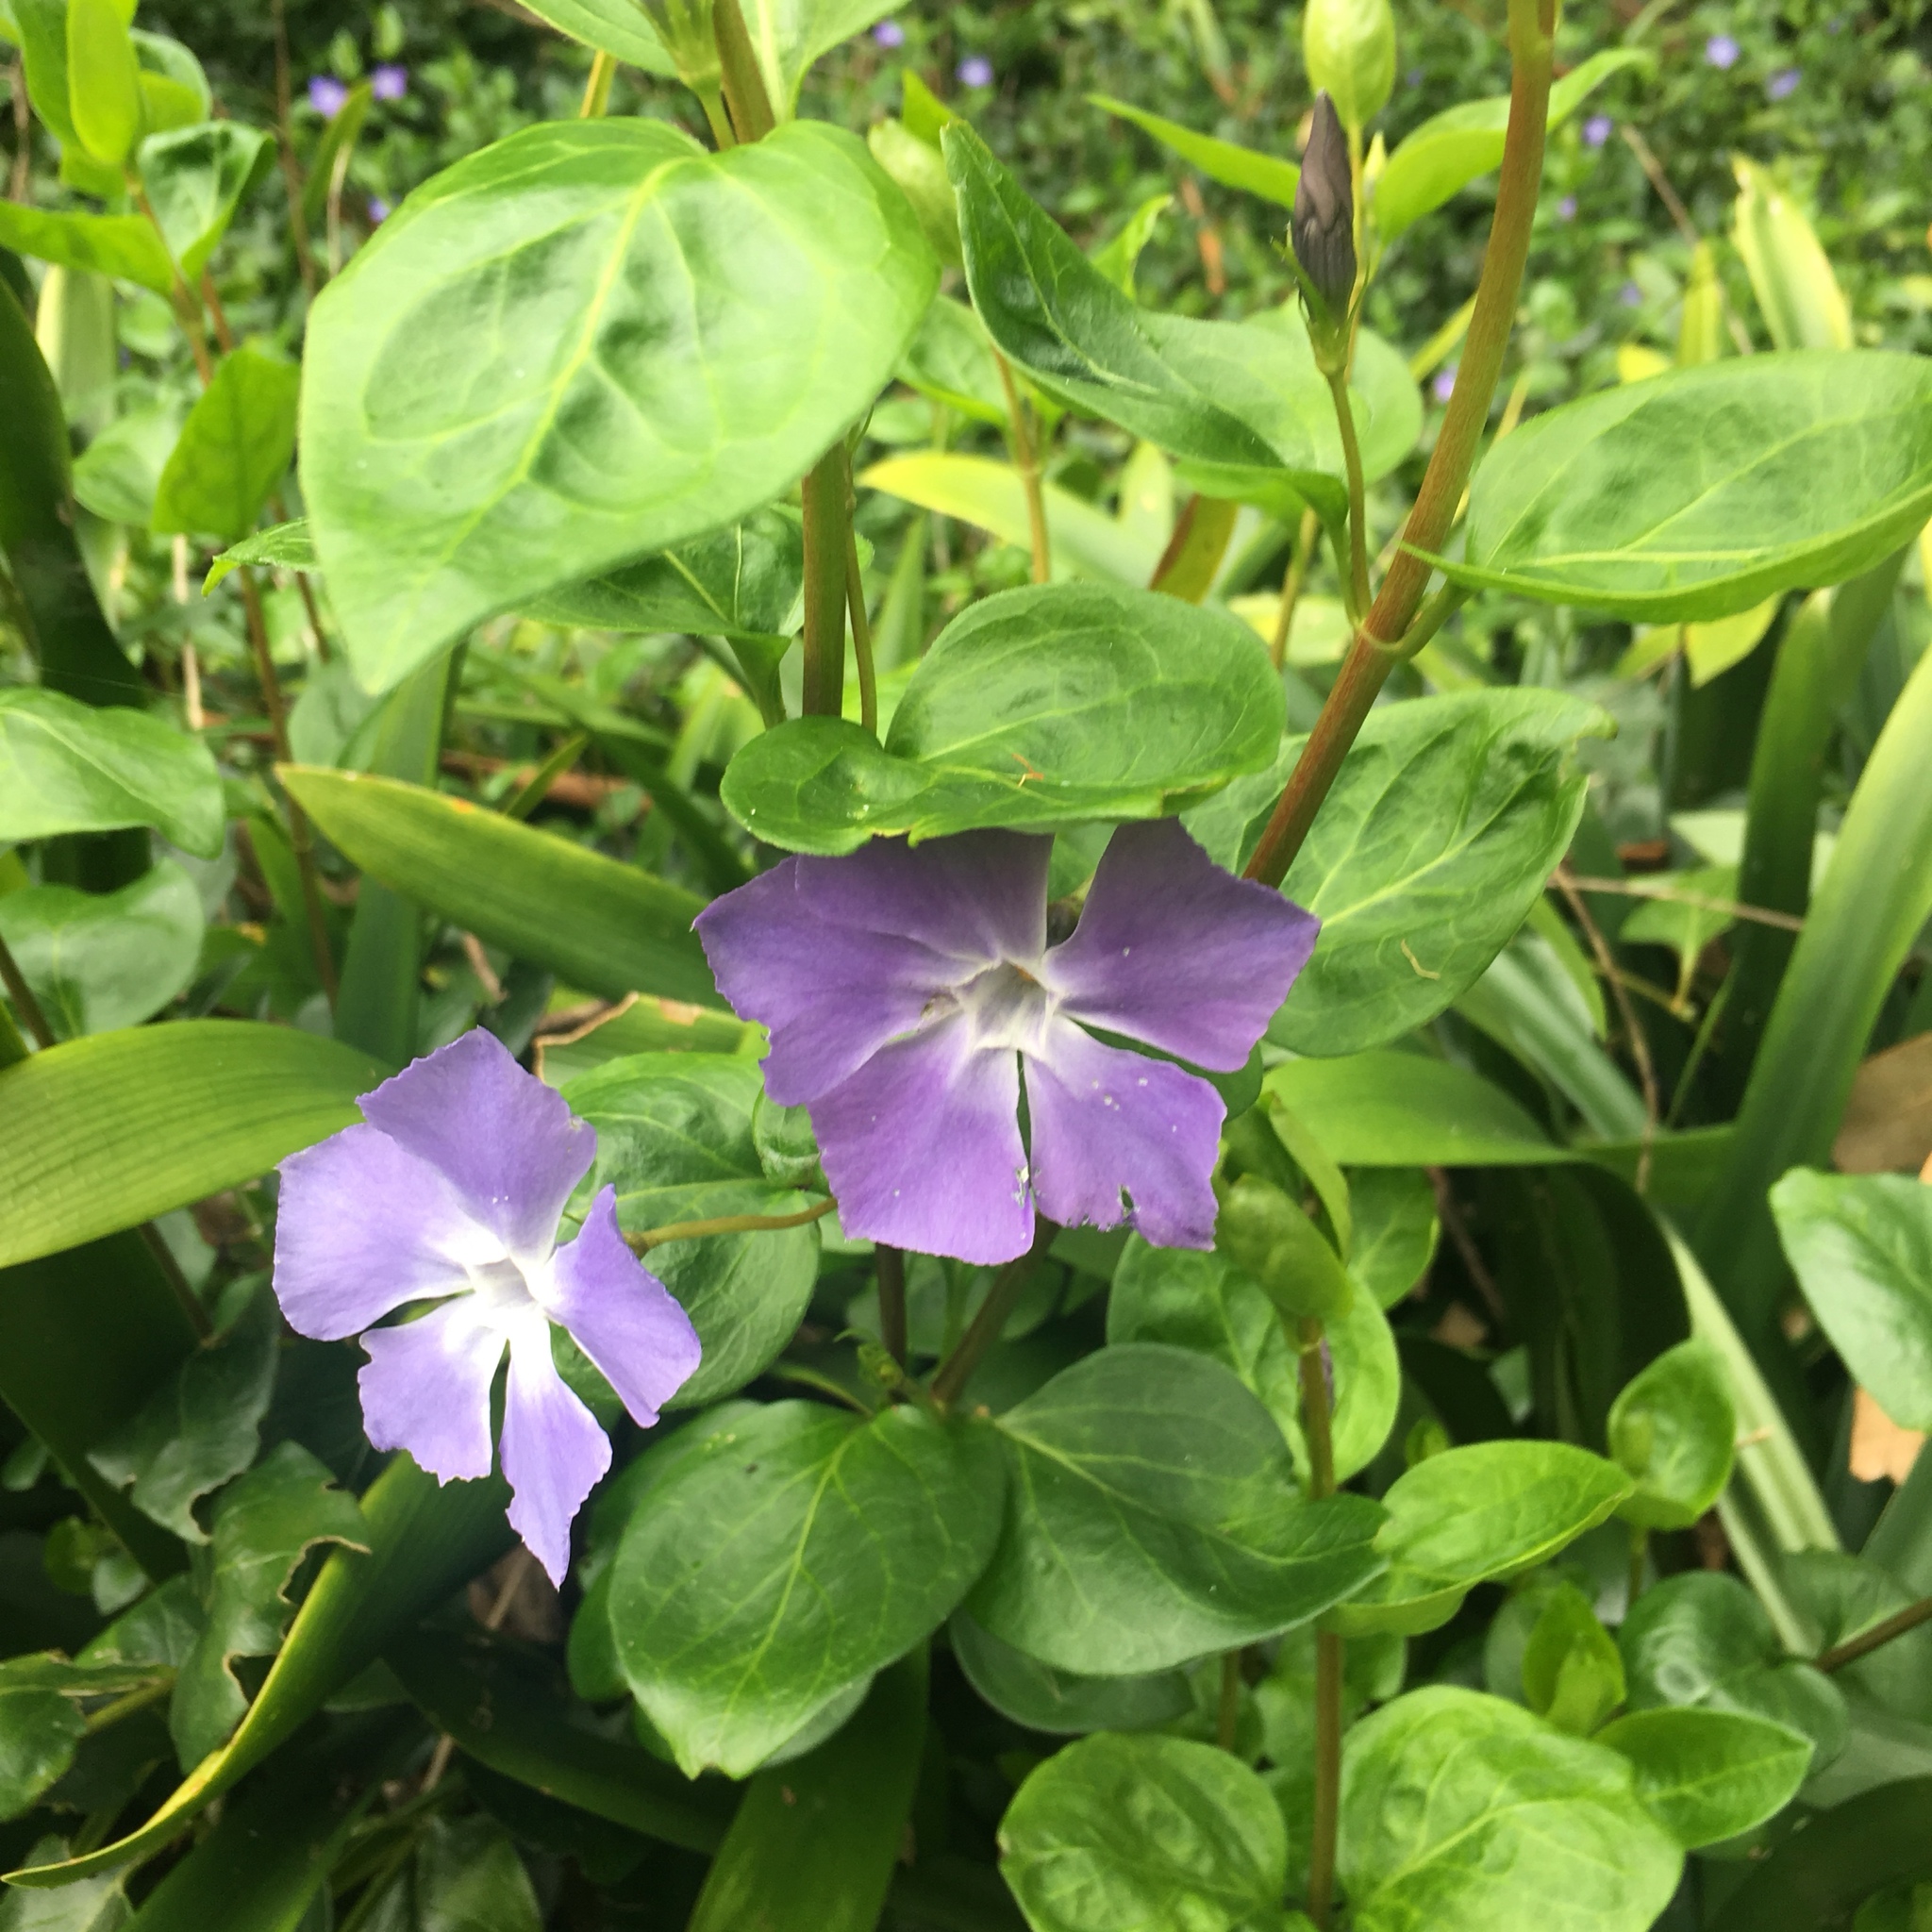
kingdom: Plantae
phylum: Tracheophyta
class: Magnoliopsida
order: Gentianales
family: Apocynaceae
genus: Vinca
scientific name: Vinca major
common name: Greater periwinkle
